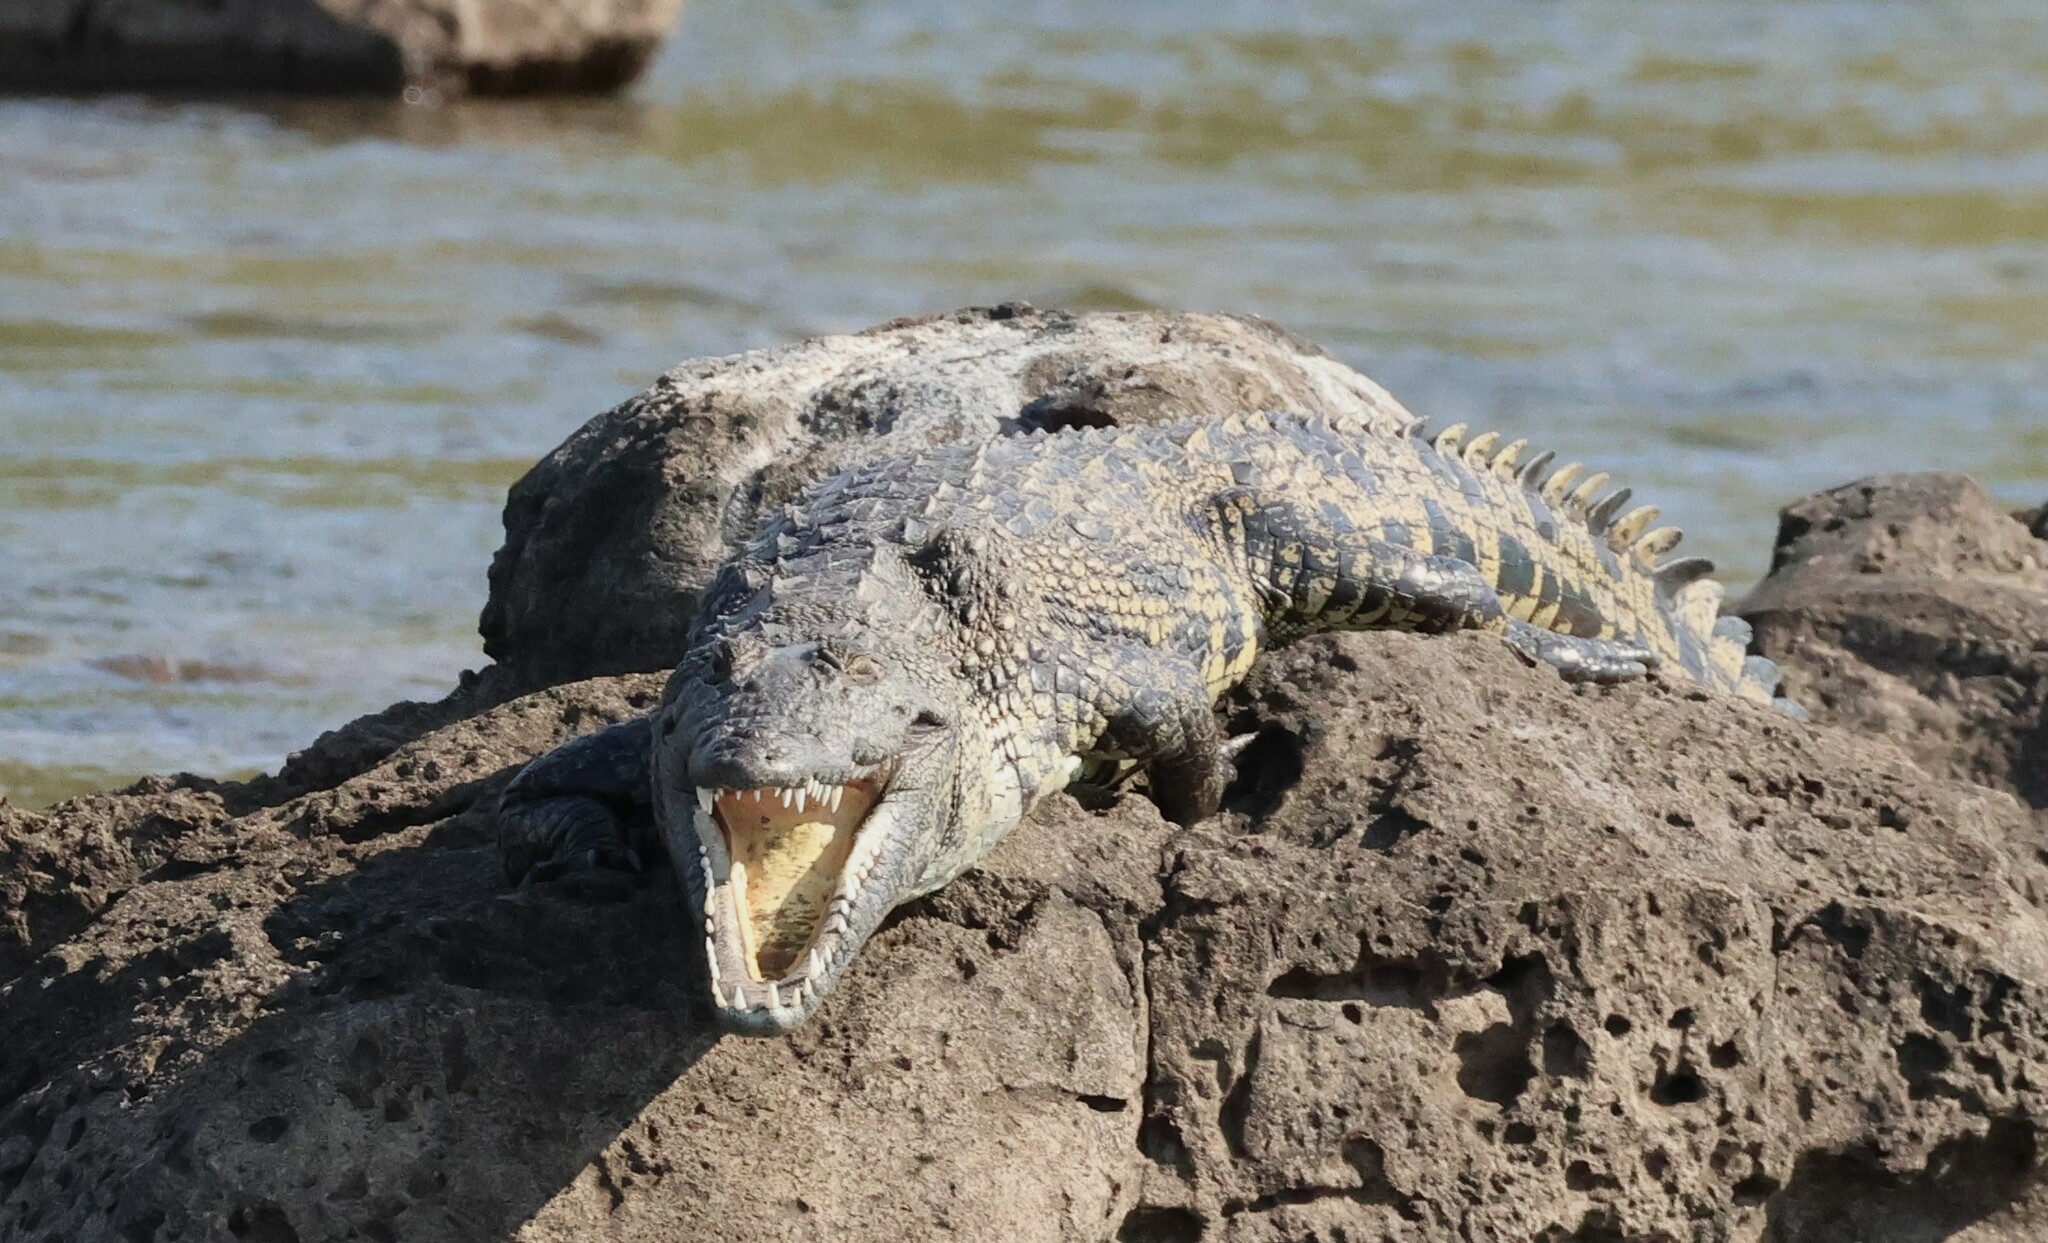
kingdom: Animalia
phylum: Chordata
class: Crocodylia
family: Crocodylidae
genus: Crocodylus
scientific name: Crocodylus niloticus
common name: Nile crocodile
